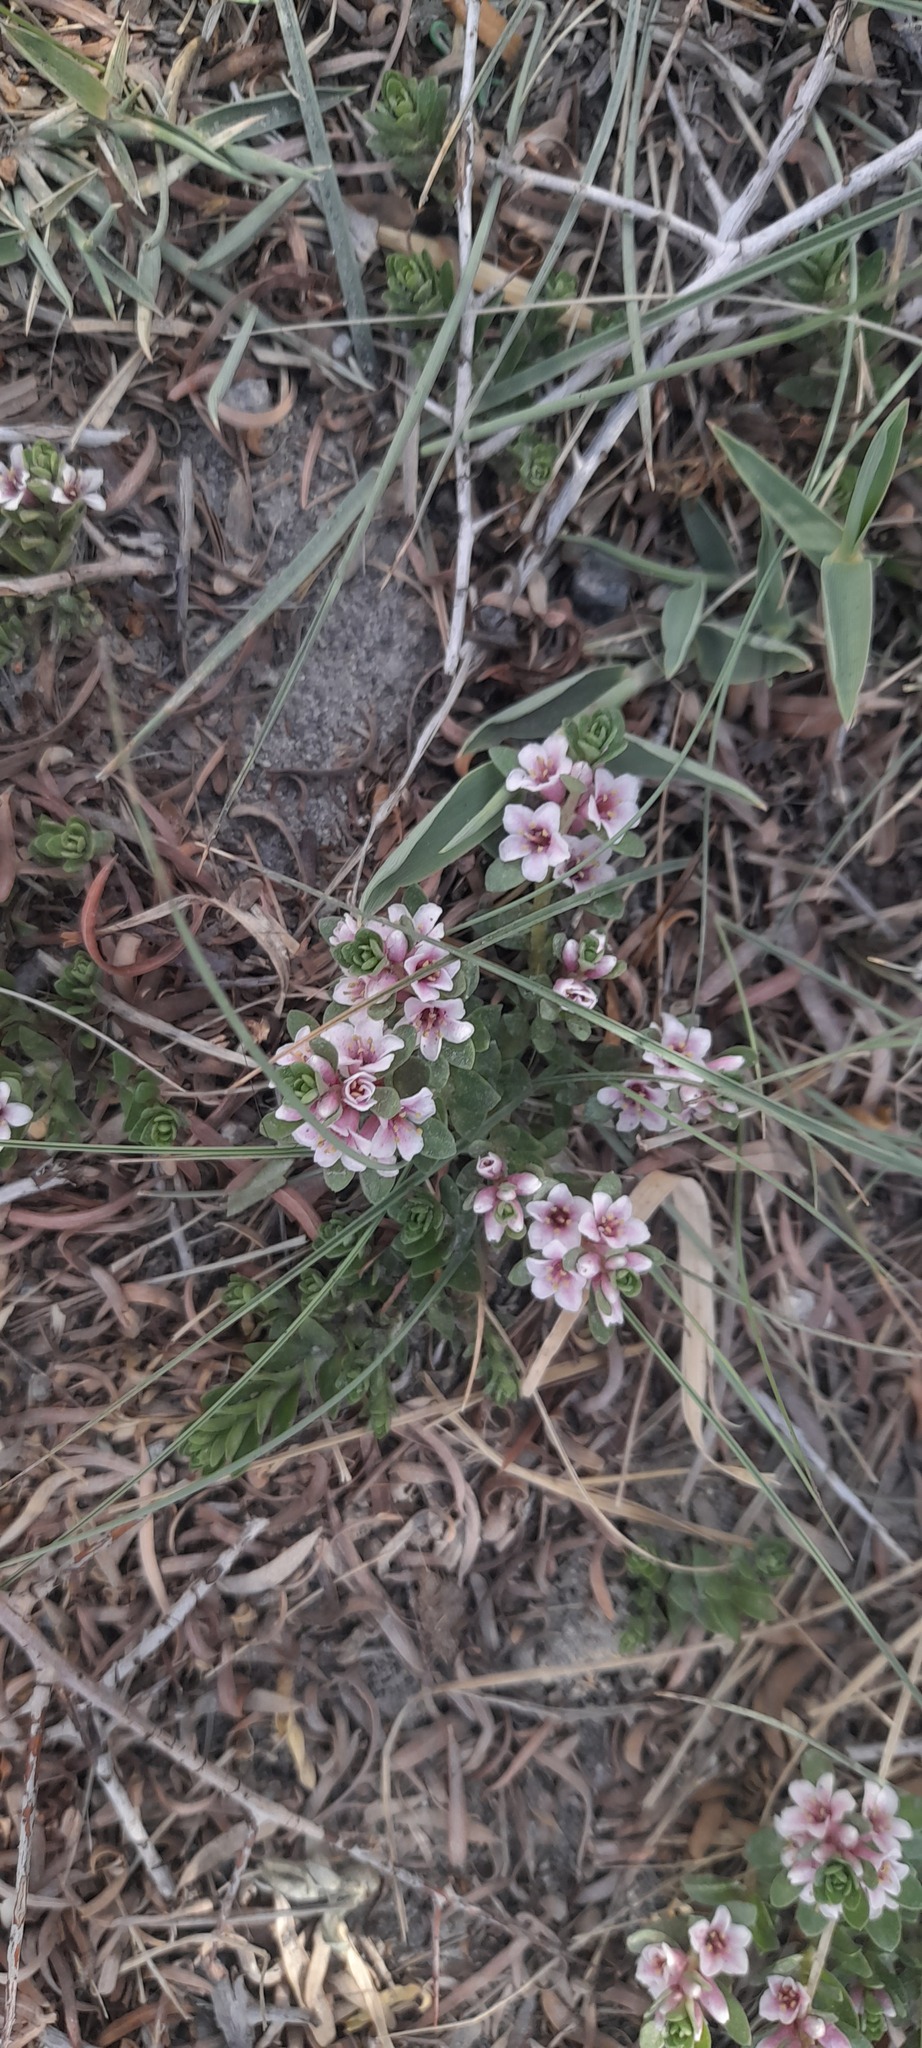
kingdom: Plantae
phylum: Tracheophyta
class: Magnoliopsida
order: Ericales
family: Primulaceae
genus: Lysimachia
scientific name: Lysimachia maritima
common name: Sea milkwort
